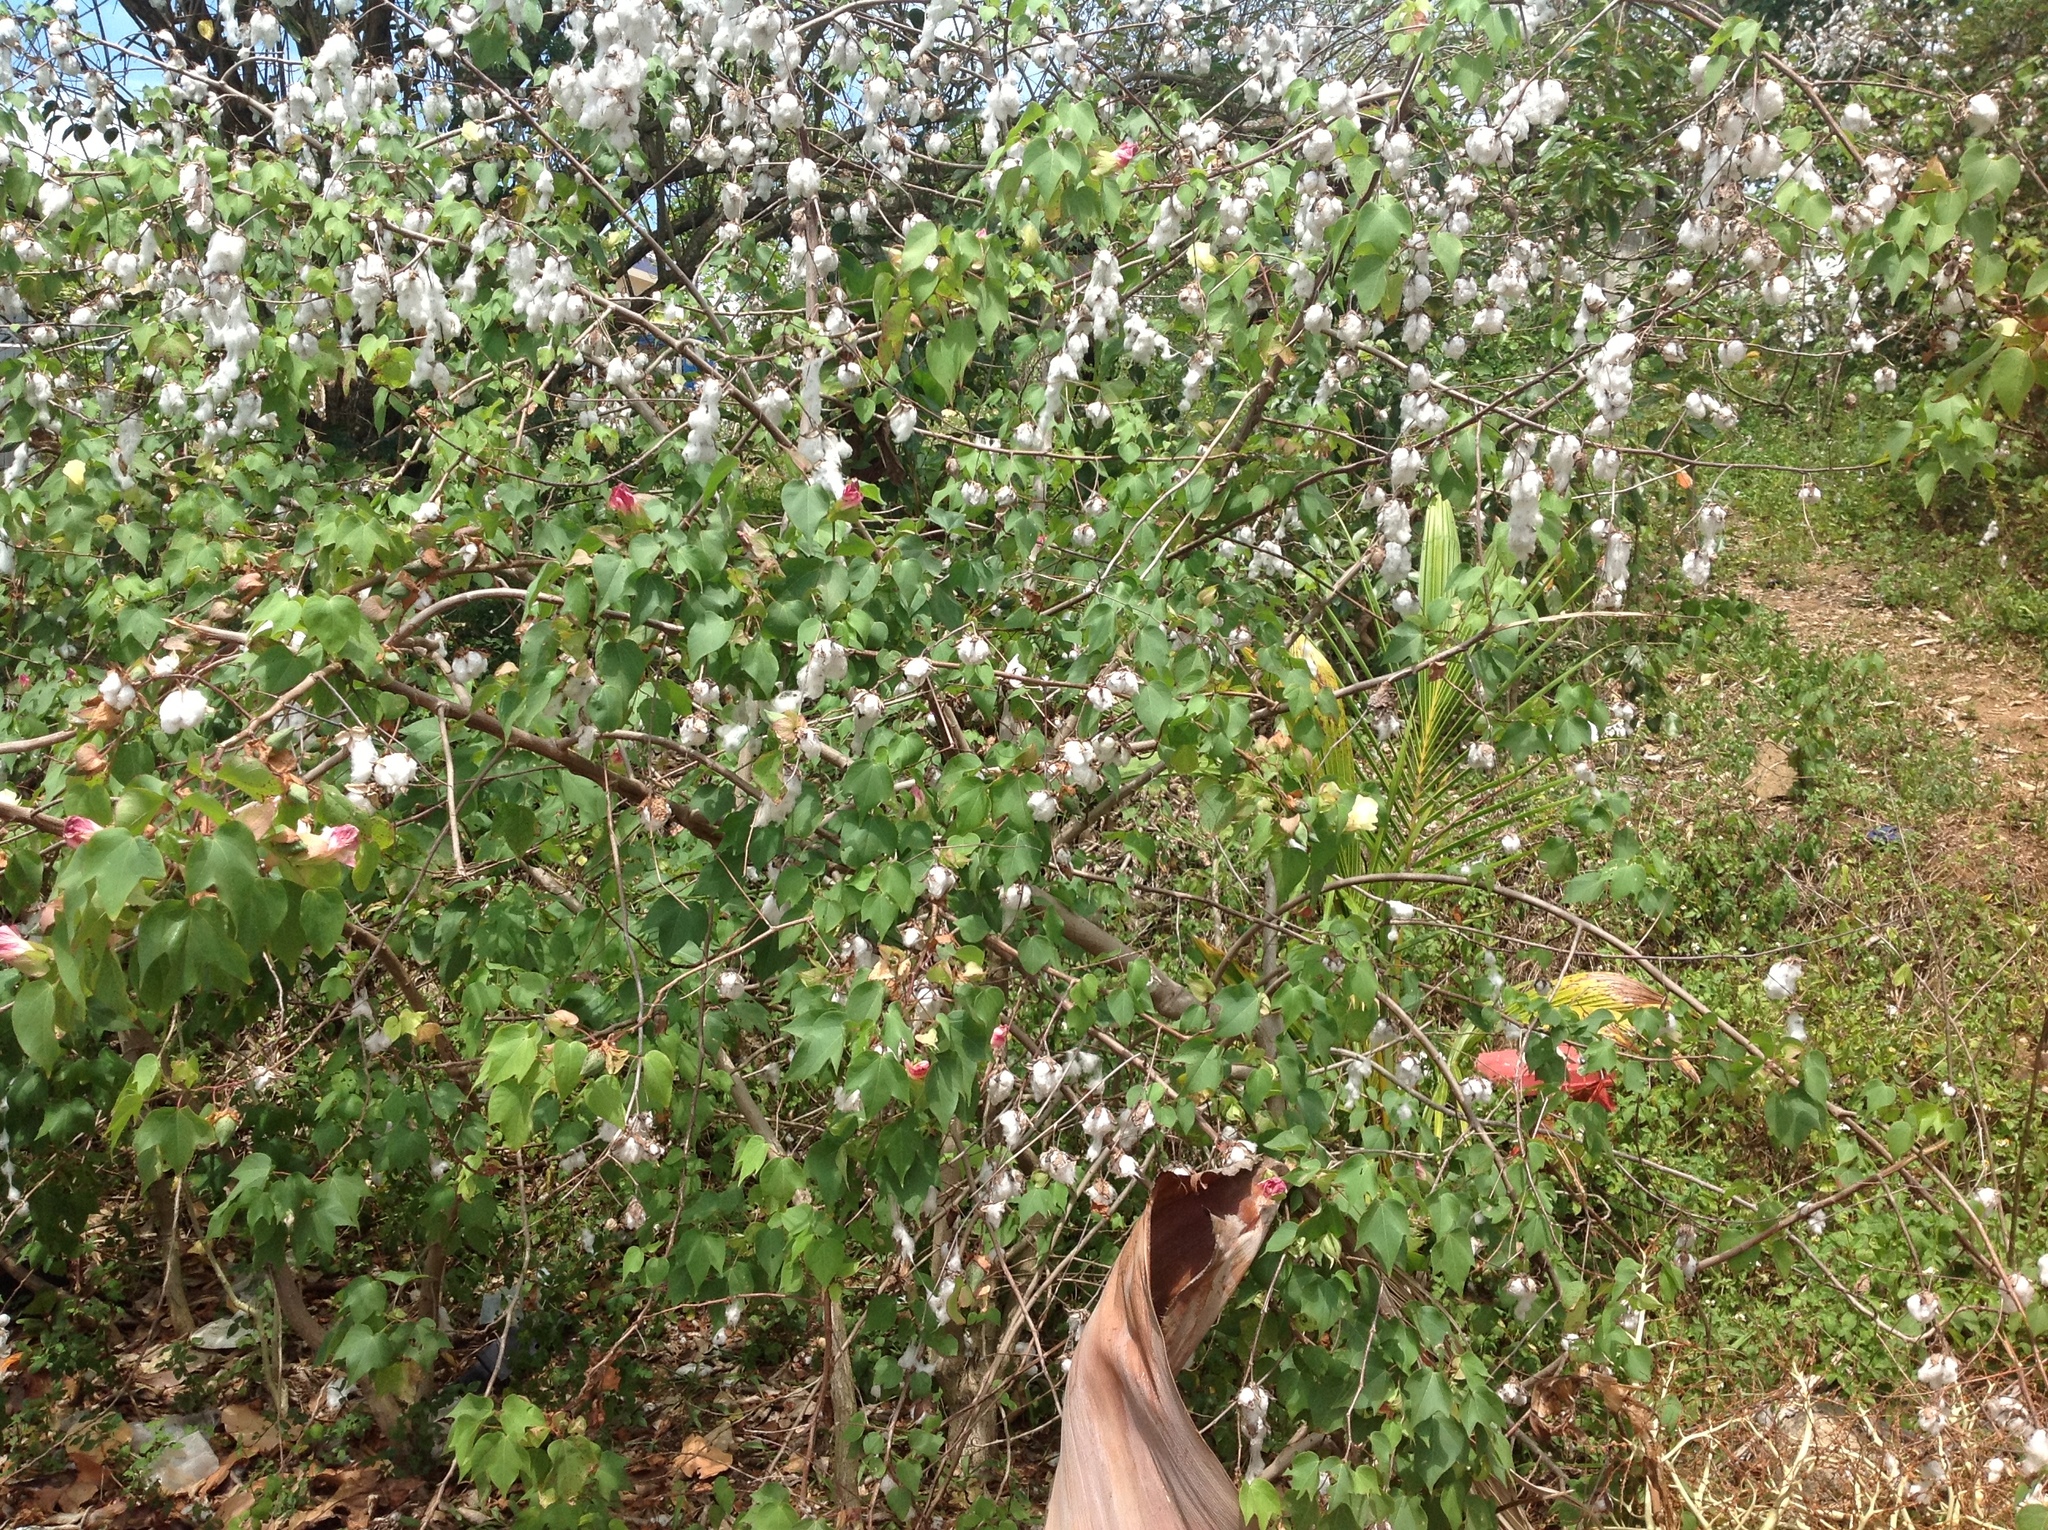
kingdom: Plantae
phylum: Tracheophyta
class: Magnoliopsida
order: Malvales
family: Malvaceae
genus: Gossypium
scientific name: Gossypium hirsutum
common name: Cotton
